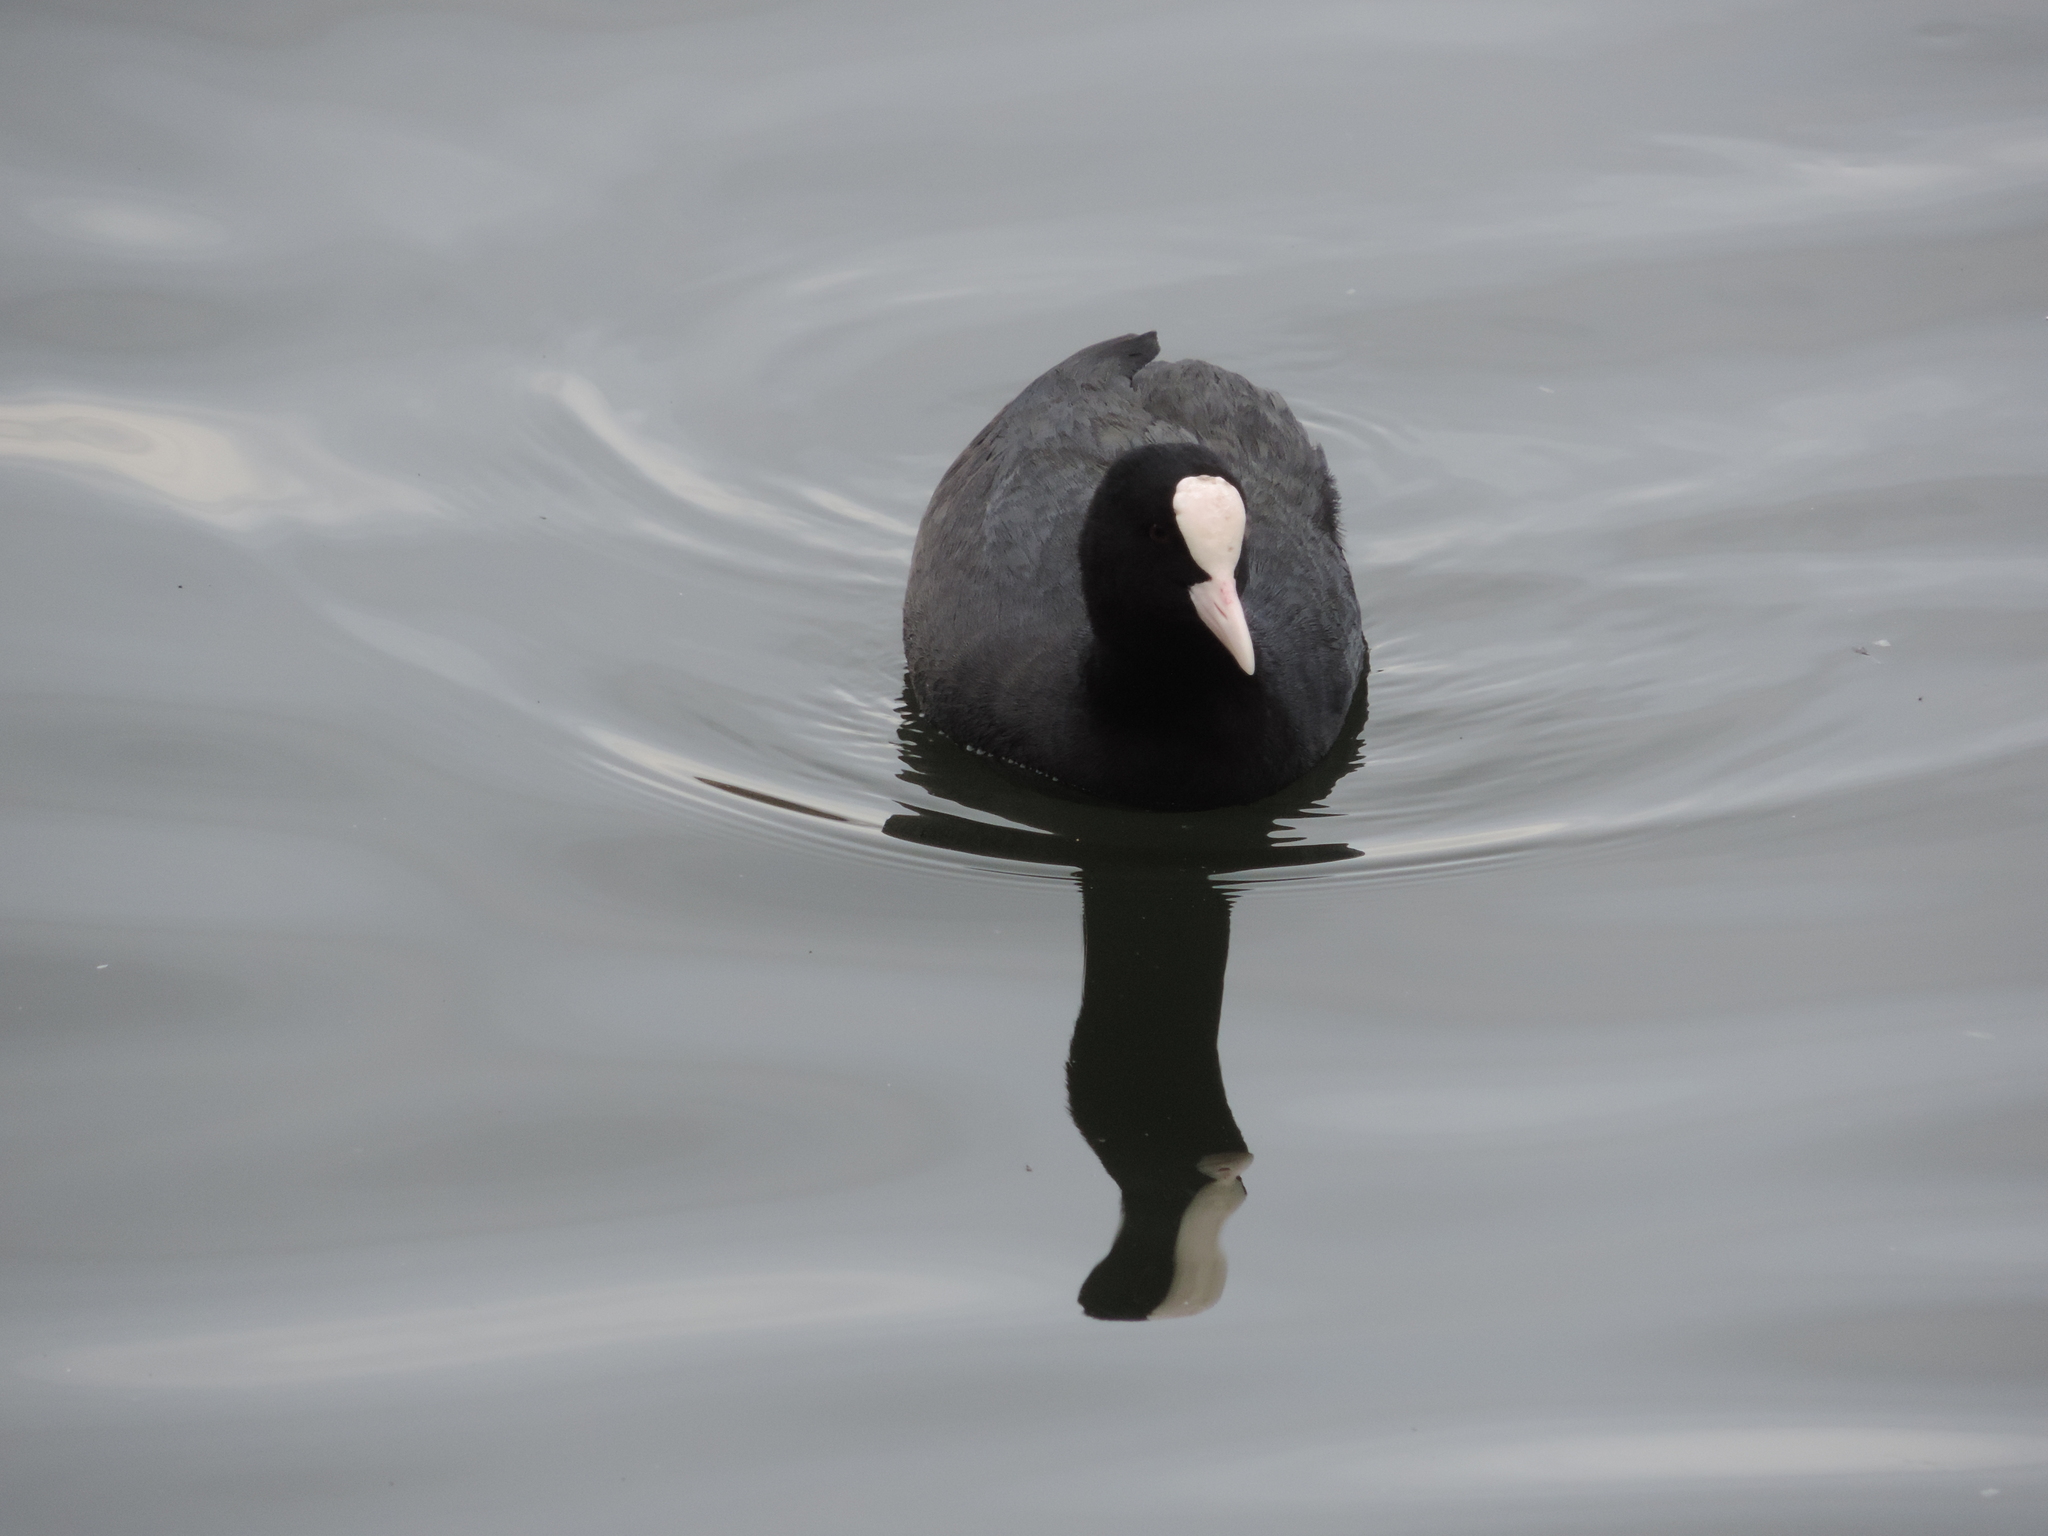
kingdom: Animalia
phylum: Chordata
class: Aves
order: Gruiformes
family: Rallidae
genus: Fulica
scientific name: Fulica atra
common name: Eurasian coot
